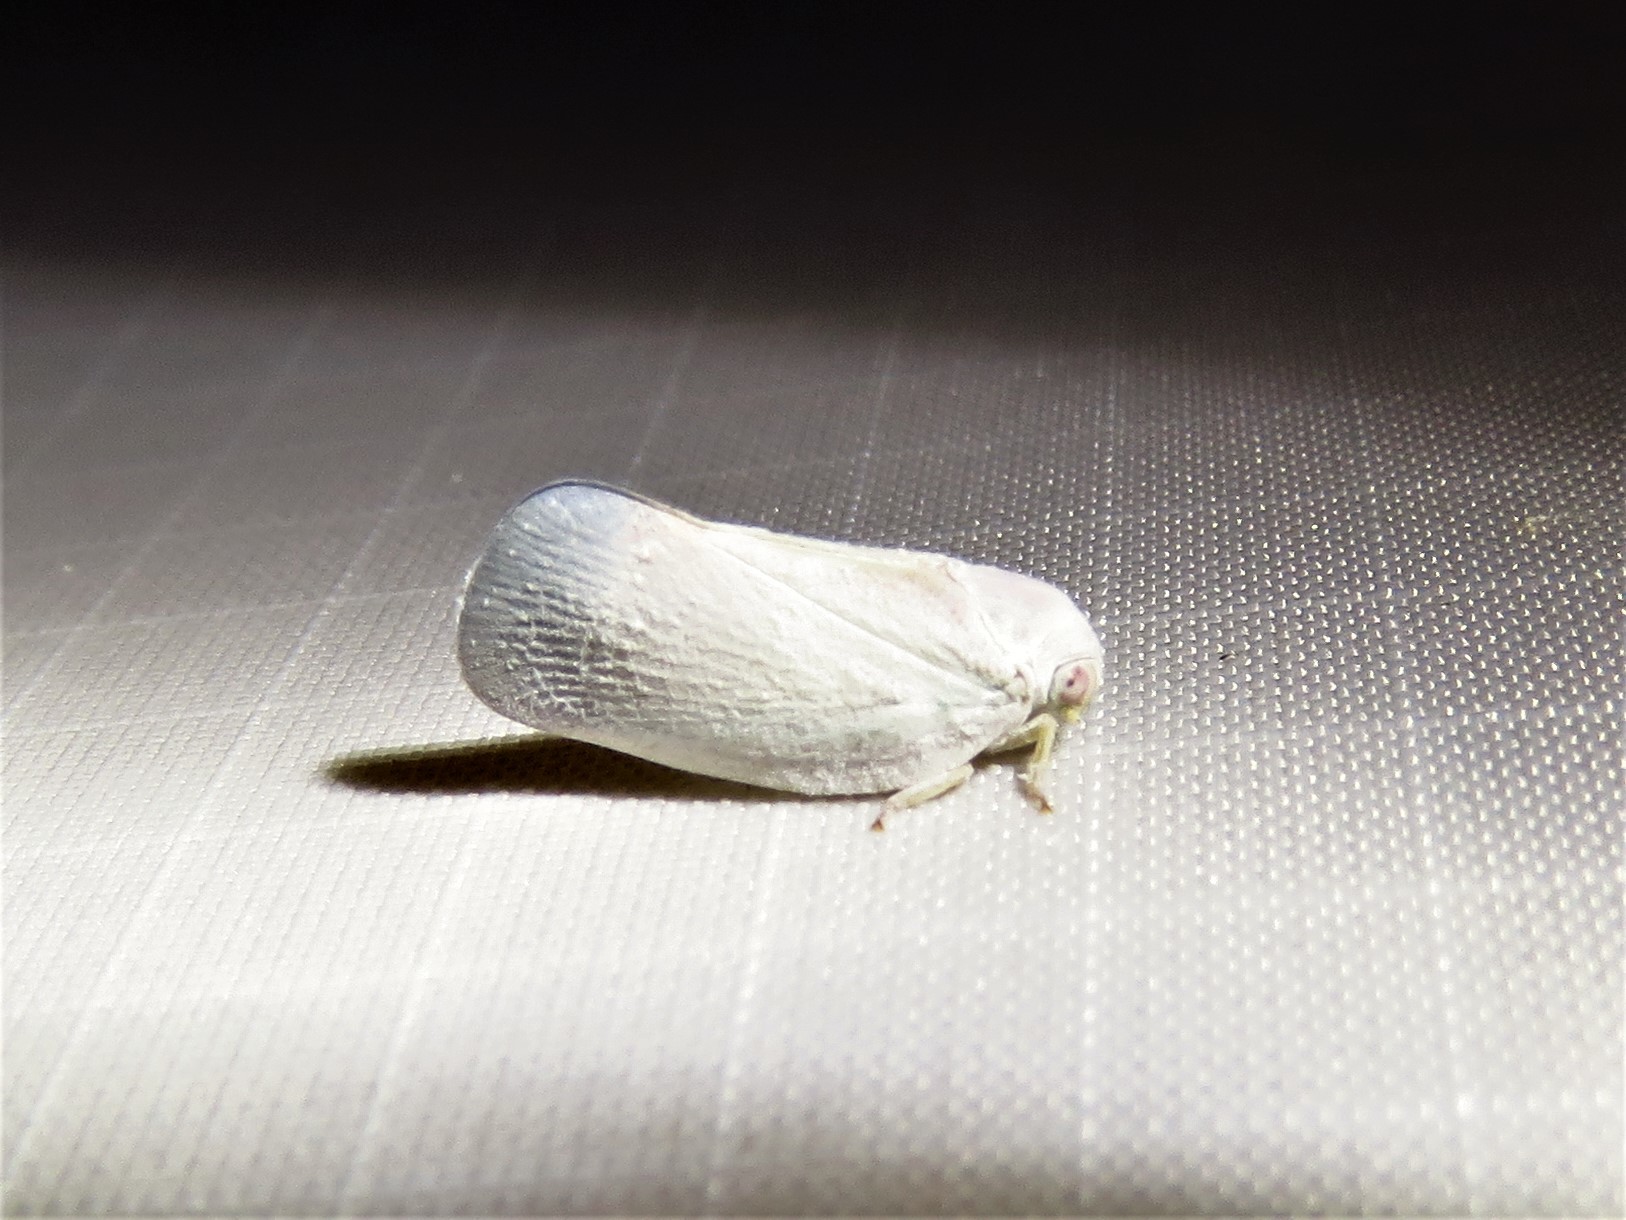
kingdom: Animalia
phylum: Arthropoda
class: Insecta
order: Hemiptera
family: Flatidae
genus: Flatormenis
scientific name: Flatormenis saucia
